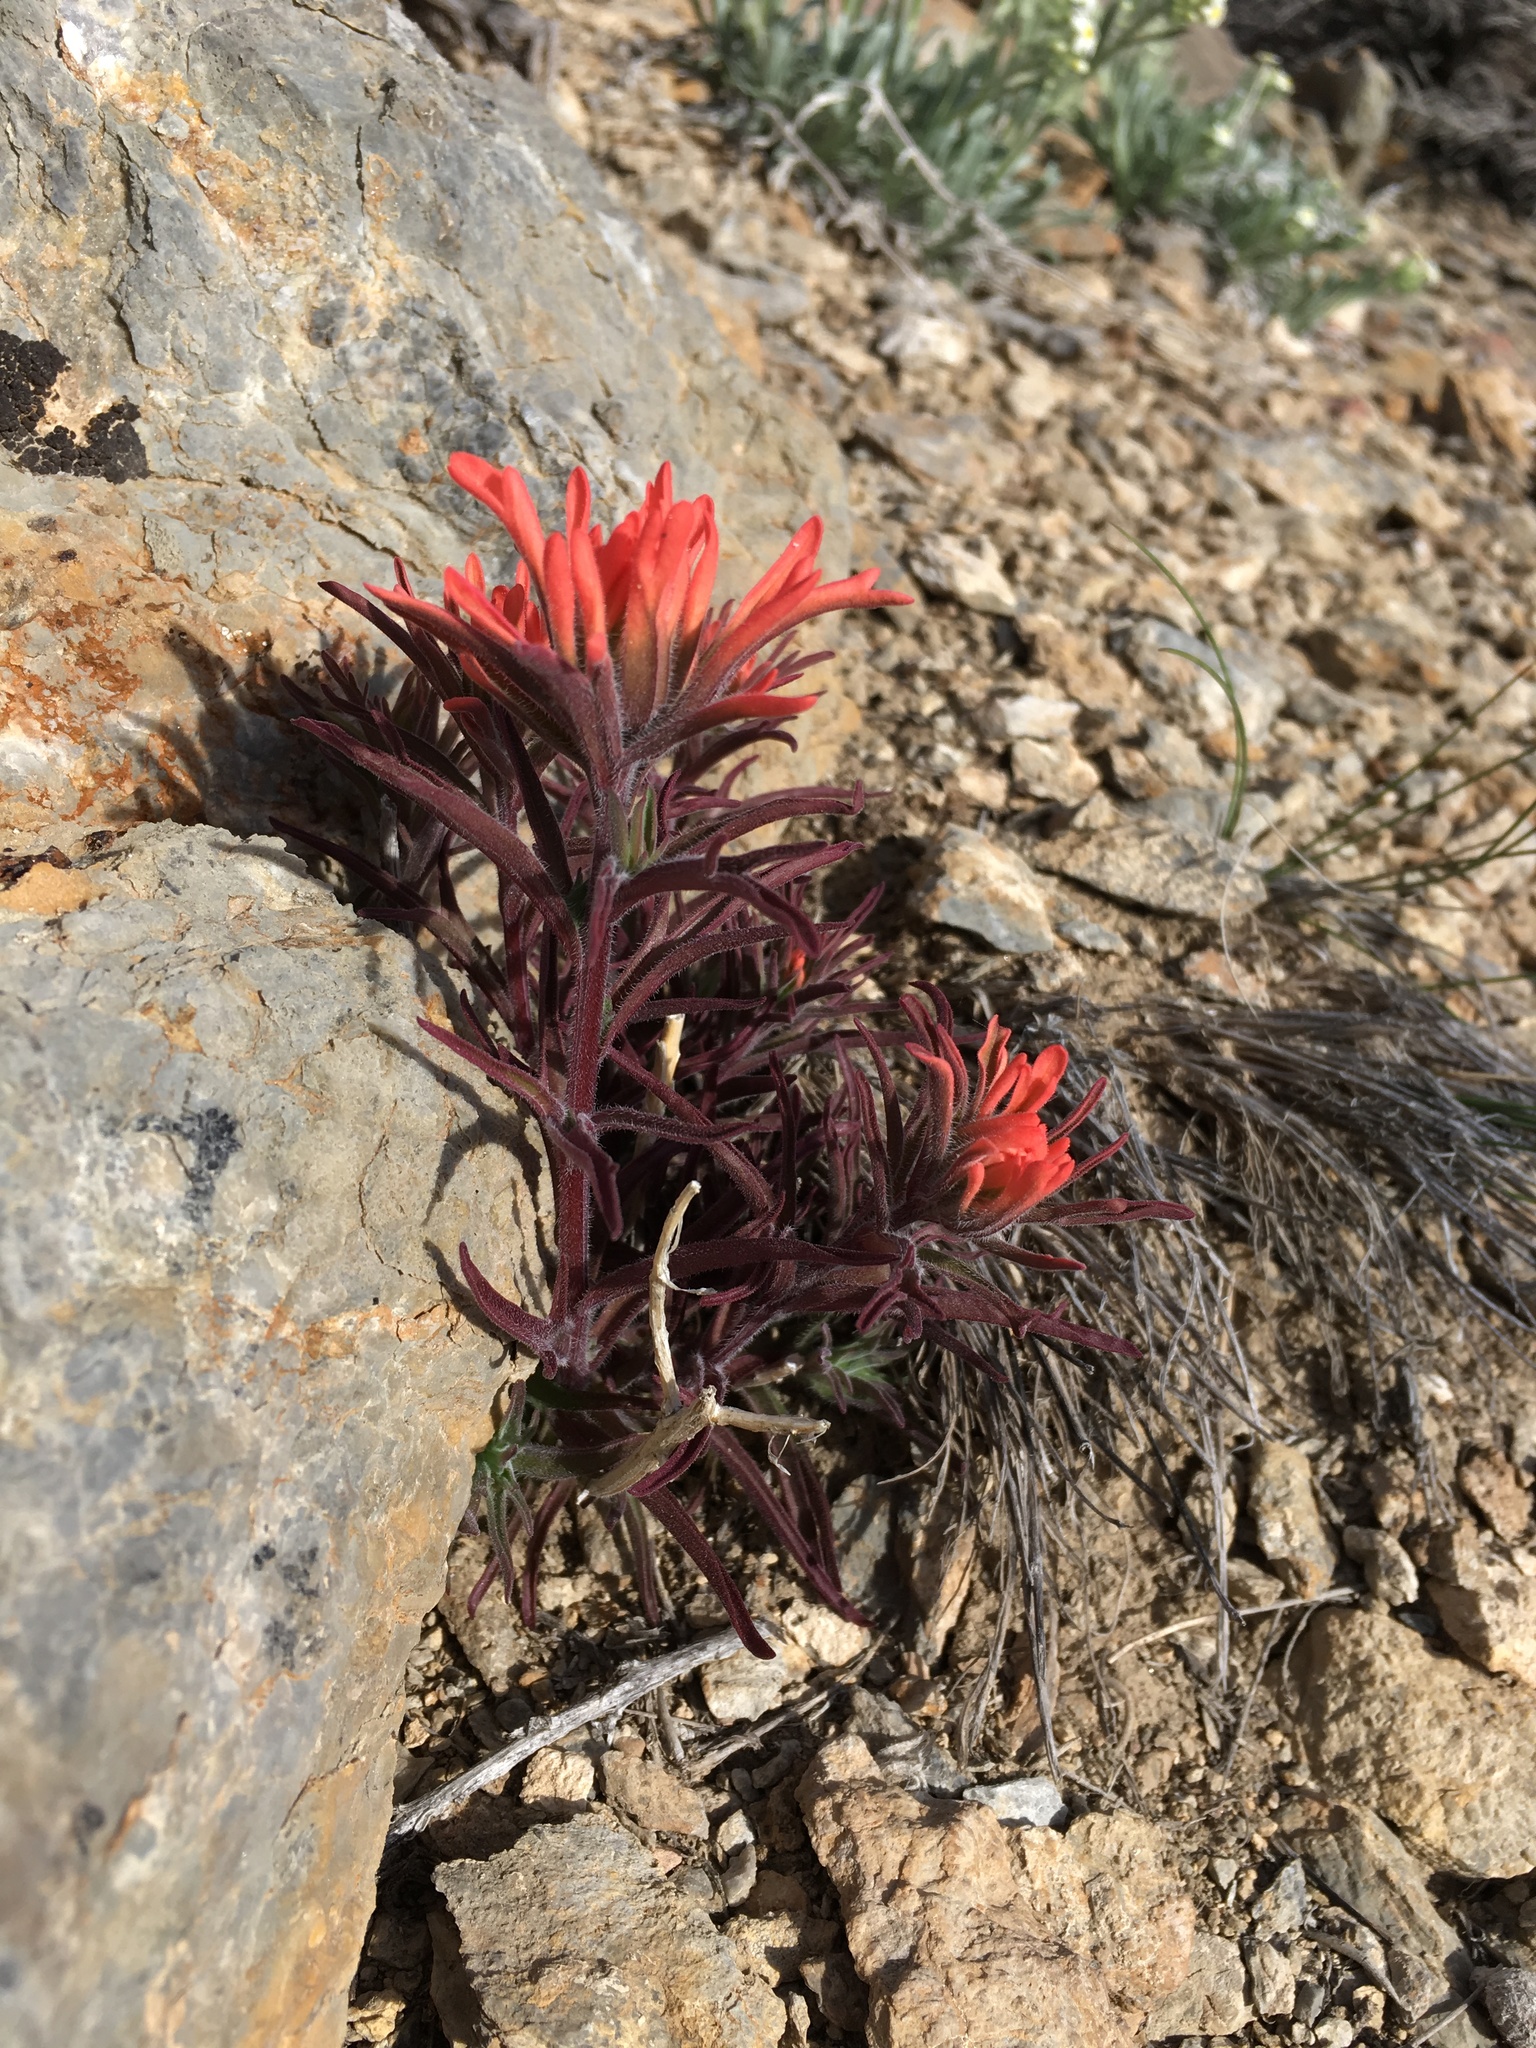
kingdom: Plantae
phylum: Tracheophyta
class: Magnoliopsida
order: Lamiales
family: Orobanchaceae
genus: Castilleja
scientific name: Castilleja chromosa
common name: Desert paintbrush
